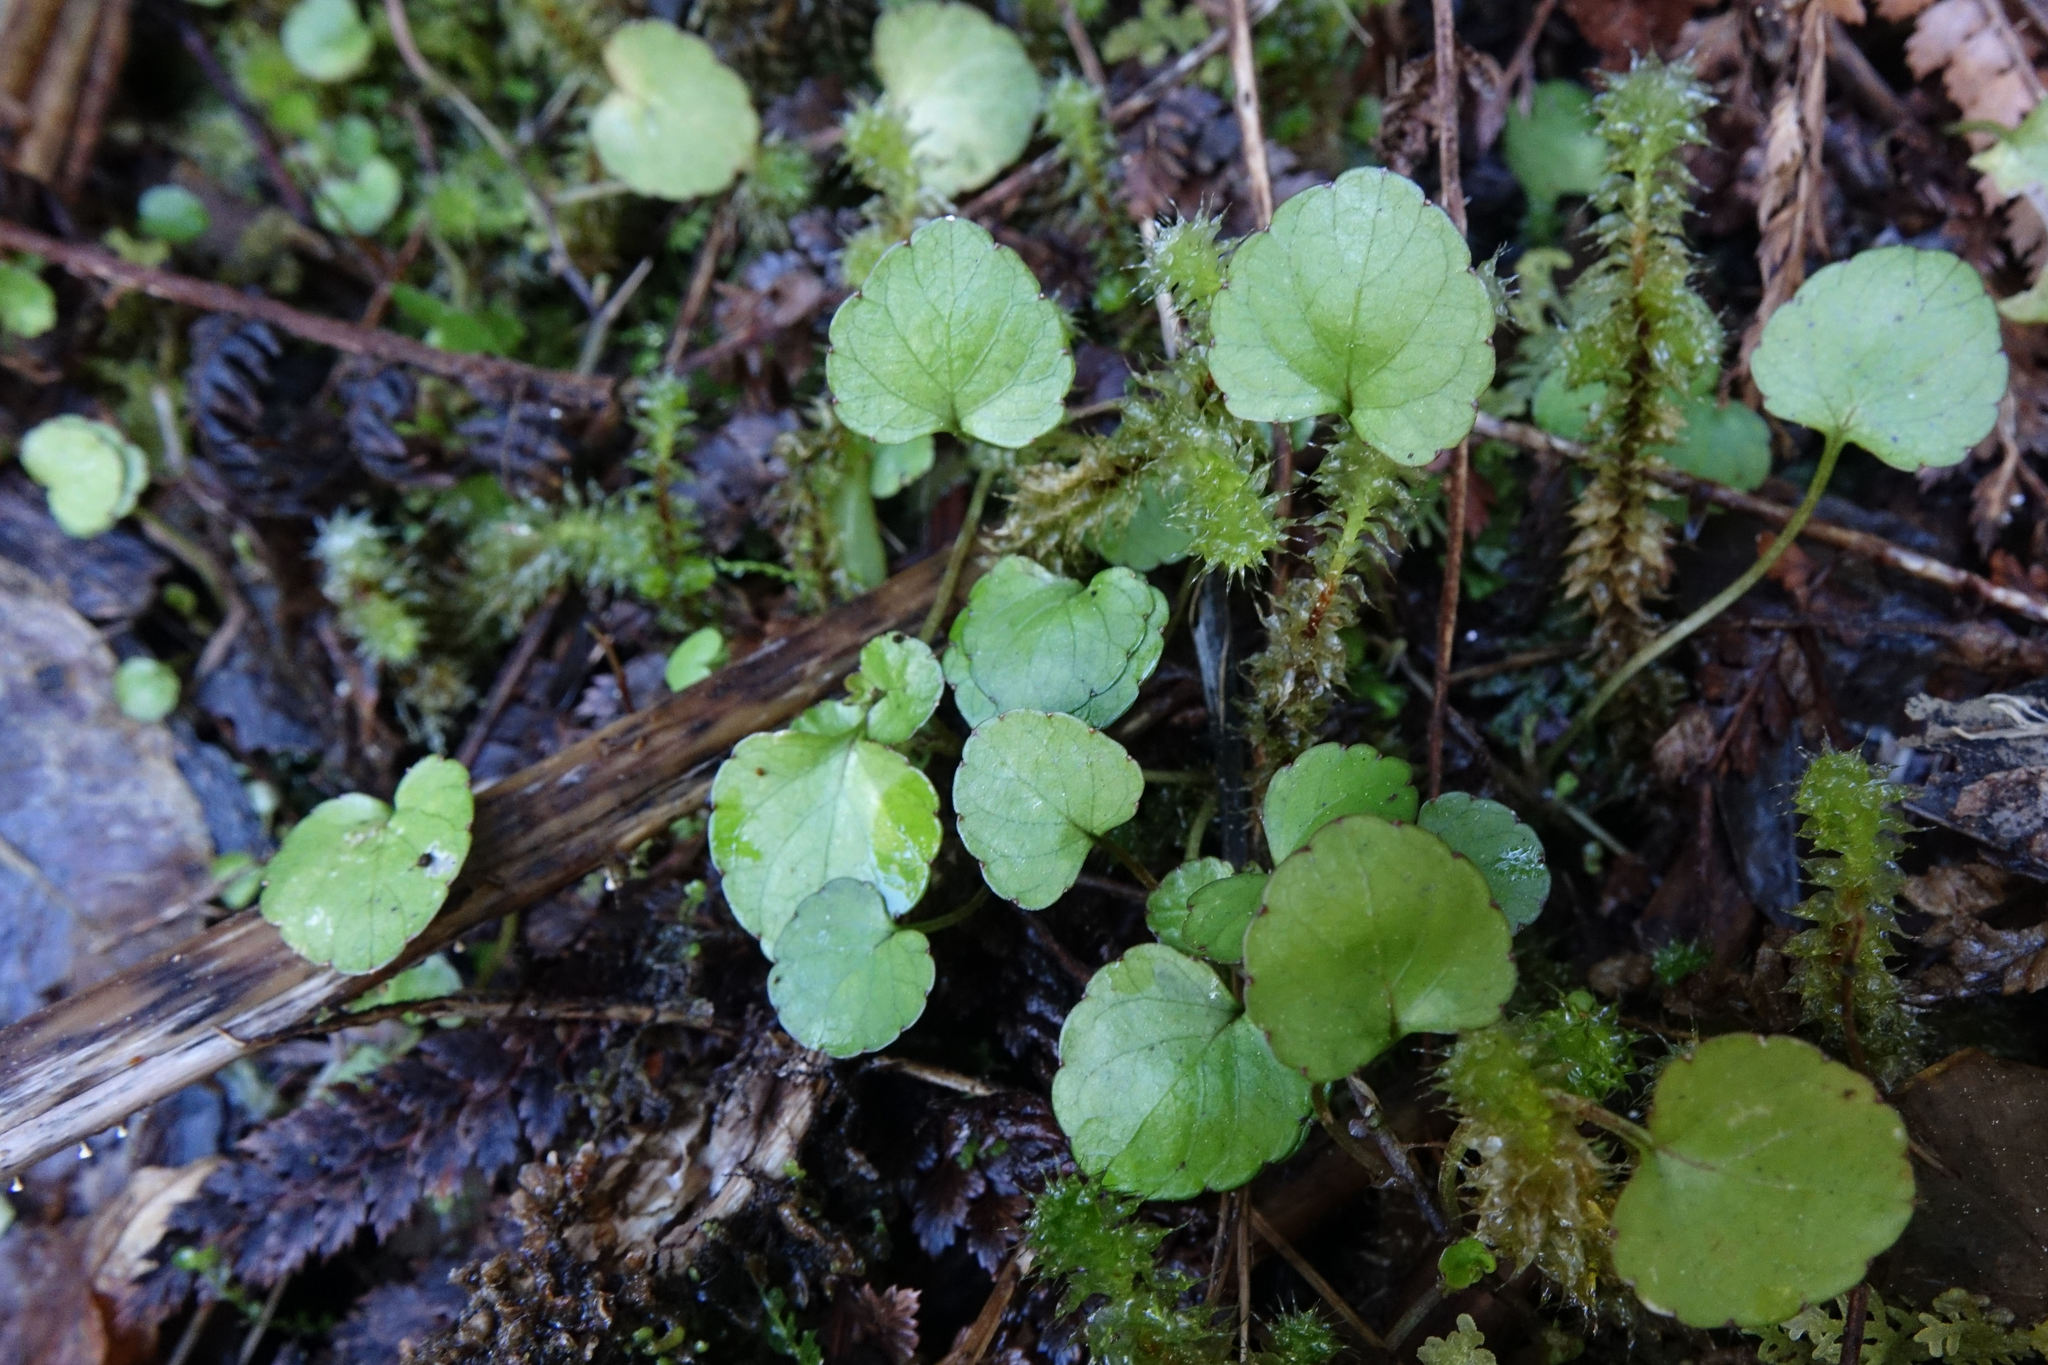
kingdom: Plantae
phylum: Tracheophyta
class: Magnoliopsida
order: Malpighiales
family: Violaceae
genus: Viola
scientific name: Viola filicaulis
